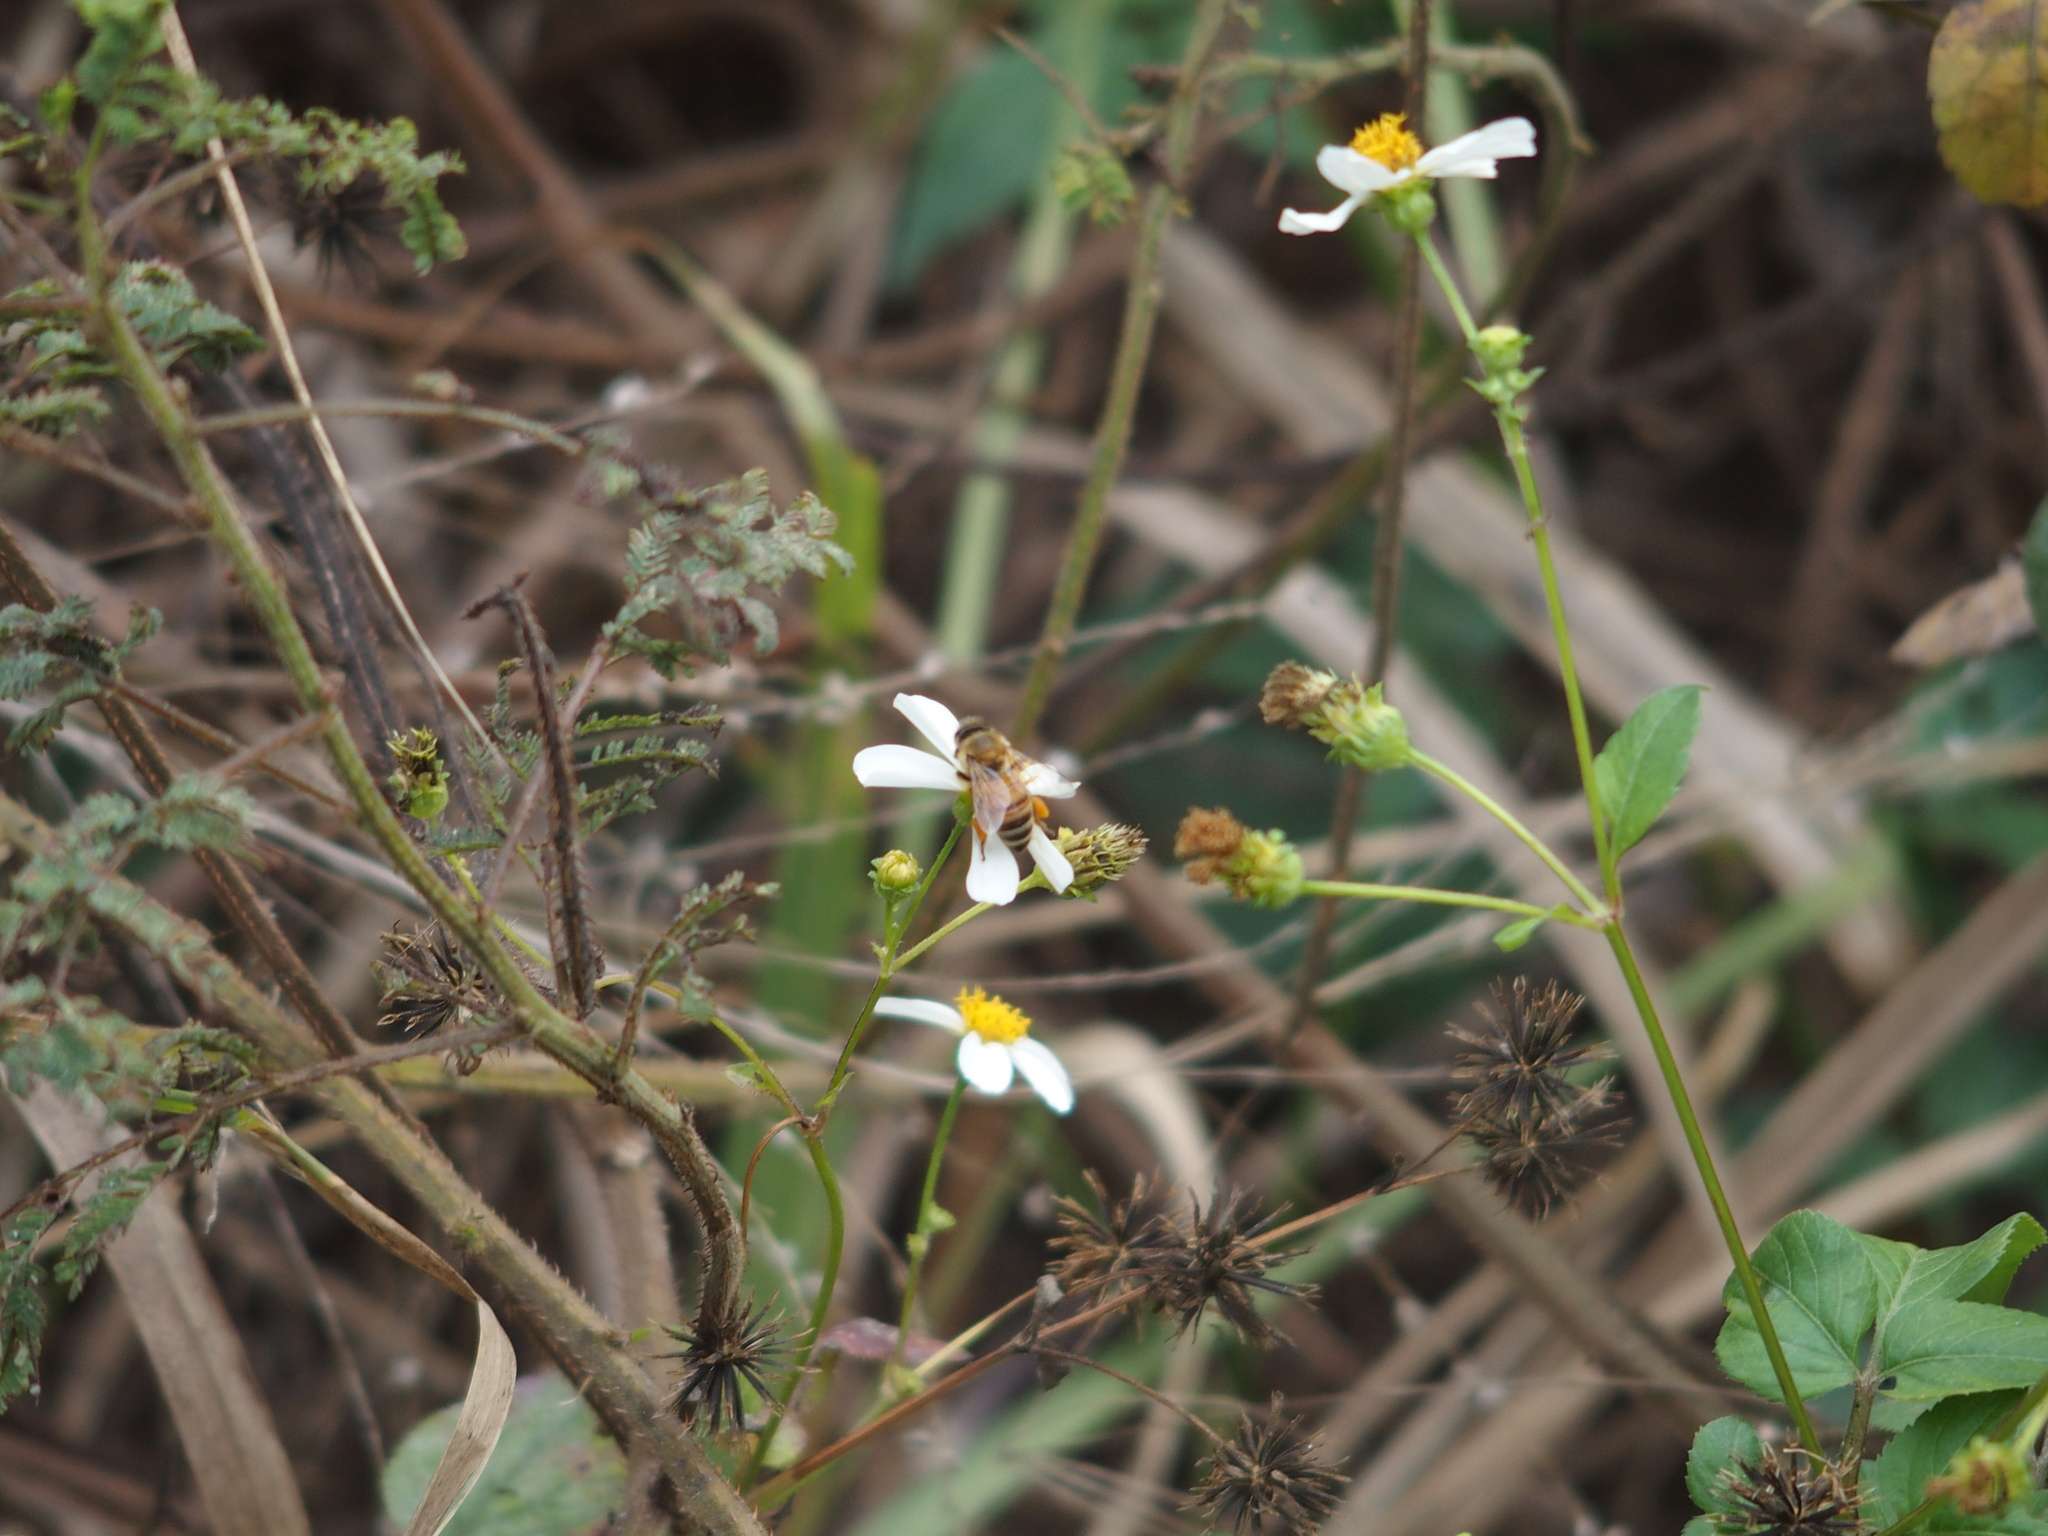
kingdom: Animalia
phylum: Arthropoda
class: Insecta
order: Hymenoptera
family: Apidae
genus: Apis
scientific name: Apis mellifera
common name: Honey bee
